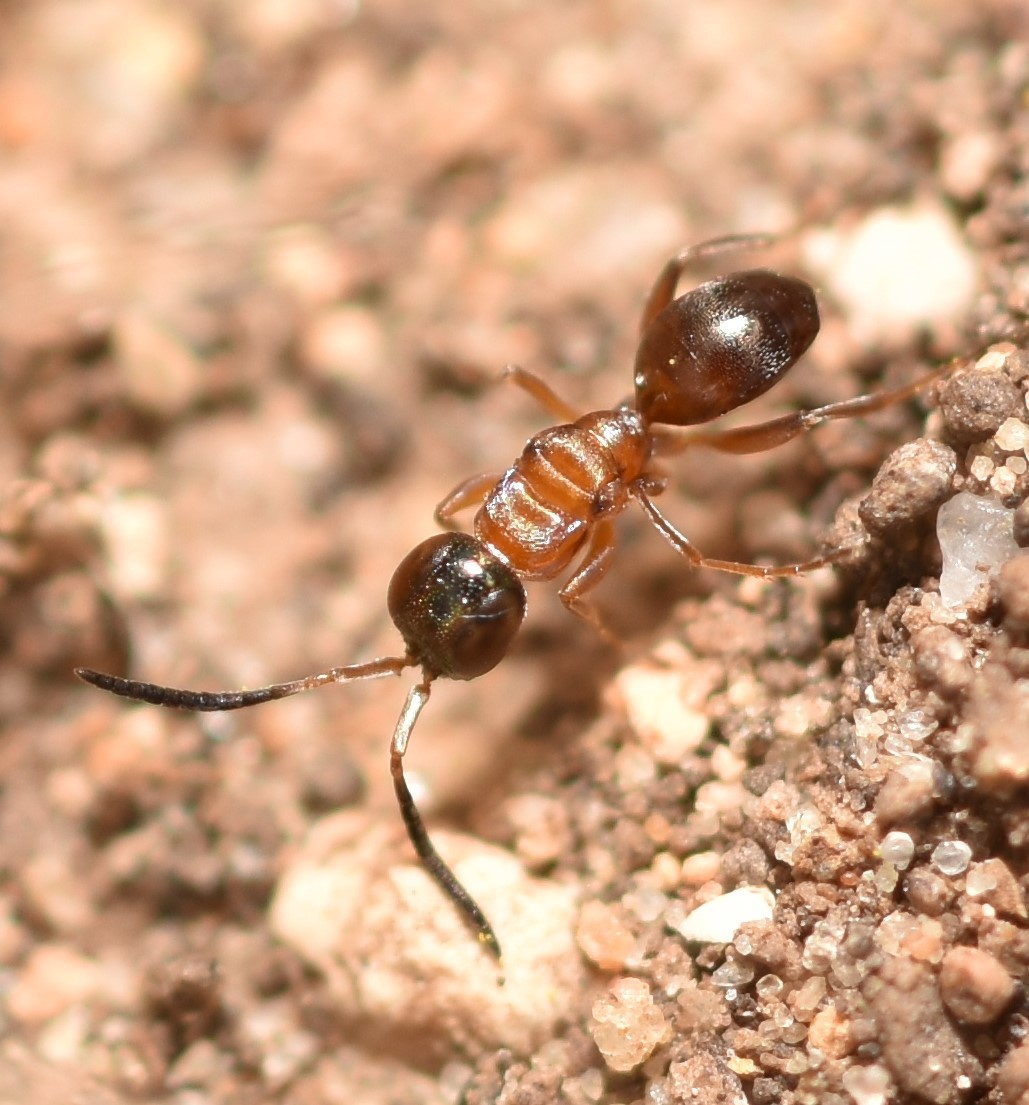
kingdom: Animalia
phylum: Arthropoda
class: Insecta
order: Hymenoptera
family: Chrysididae
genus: Amisega
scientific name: Amisega bella
